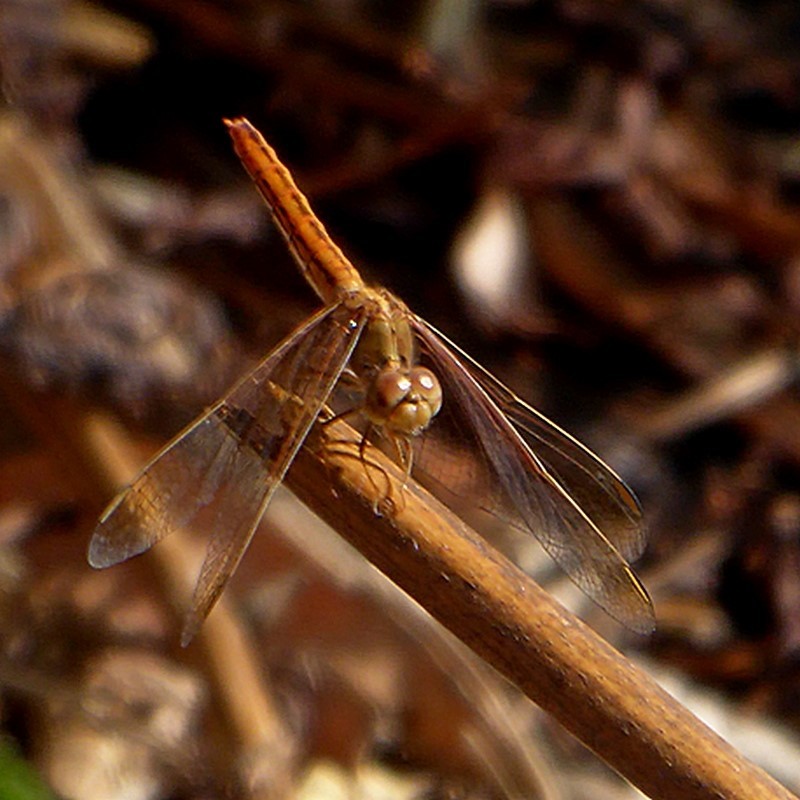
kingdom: Animalia
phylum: Arthropoda
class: Insecta
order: Odonata
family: Libellulidae
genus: Diplacodes
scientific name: Diplacodes haematodes
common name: Scarlet percher
